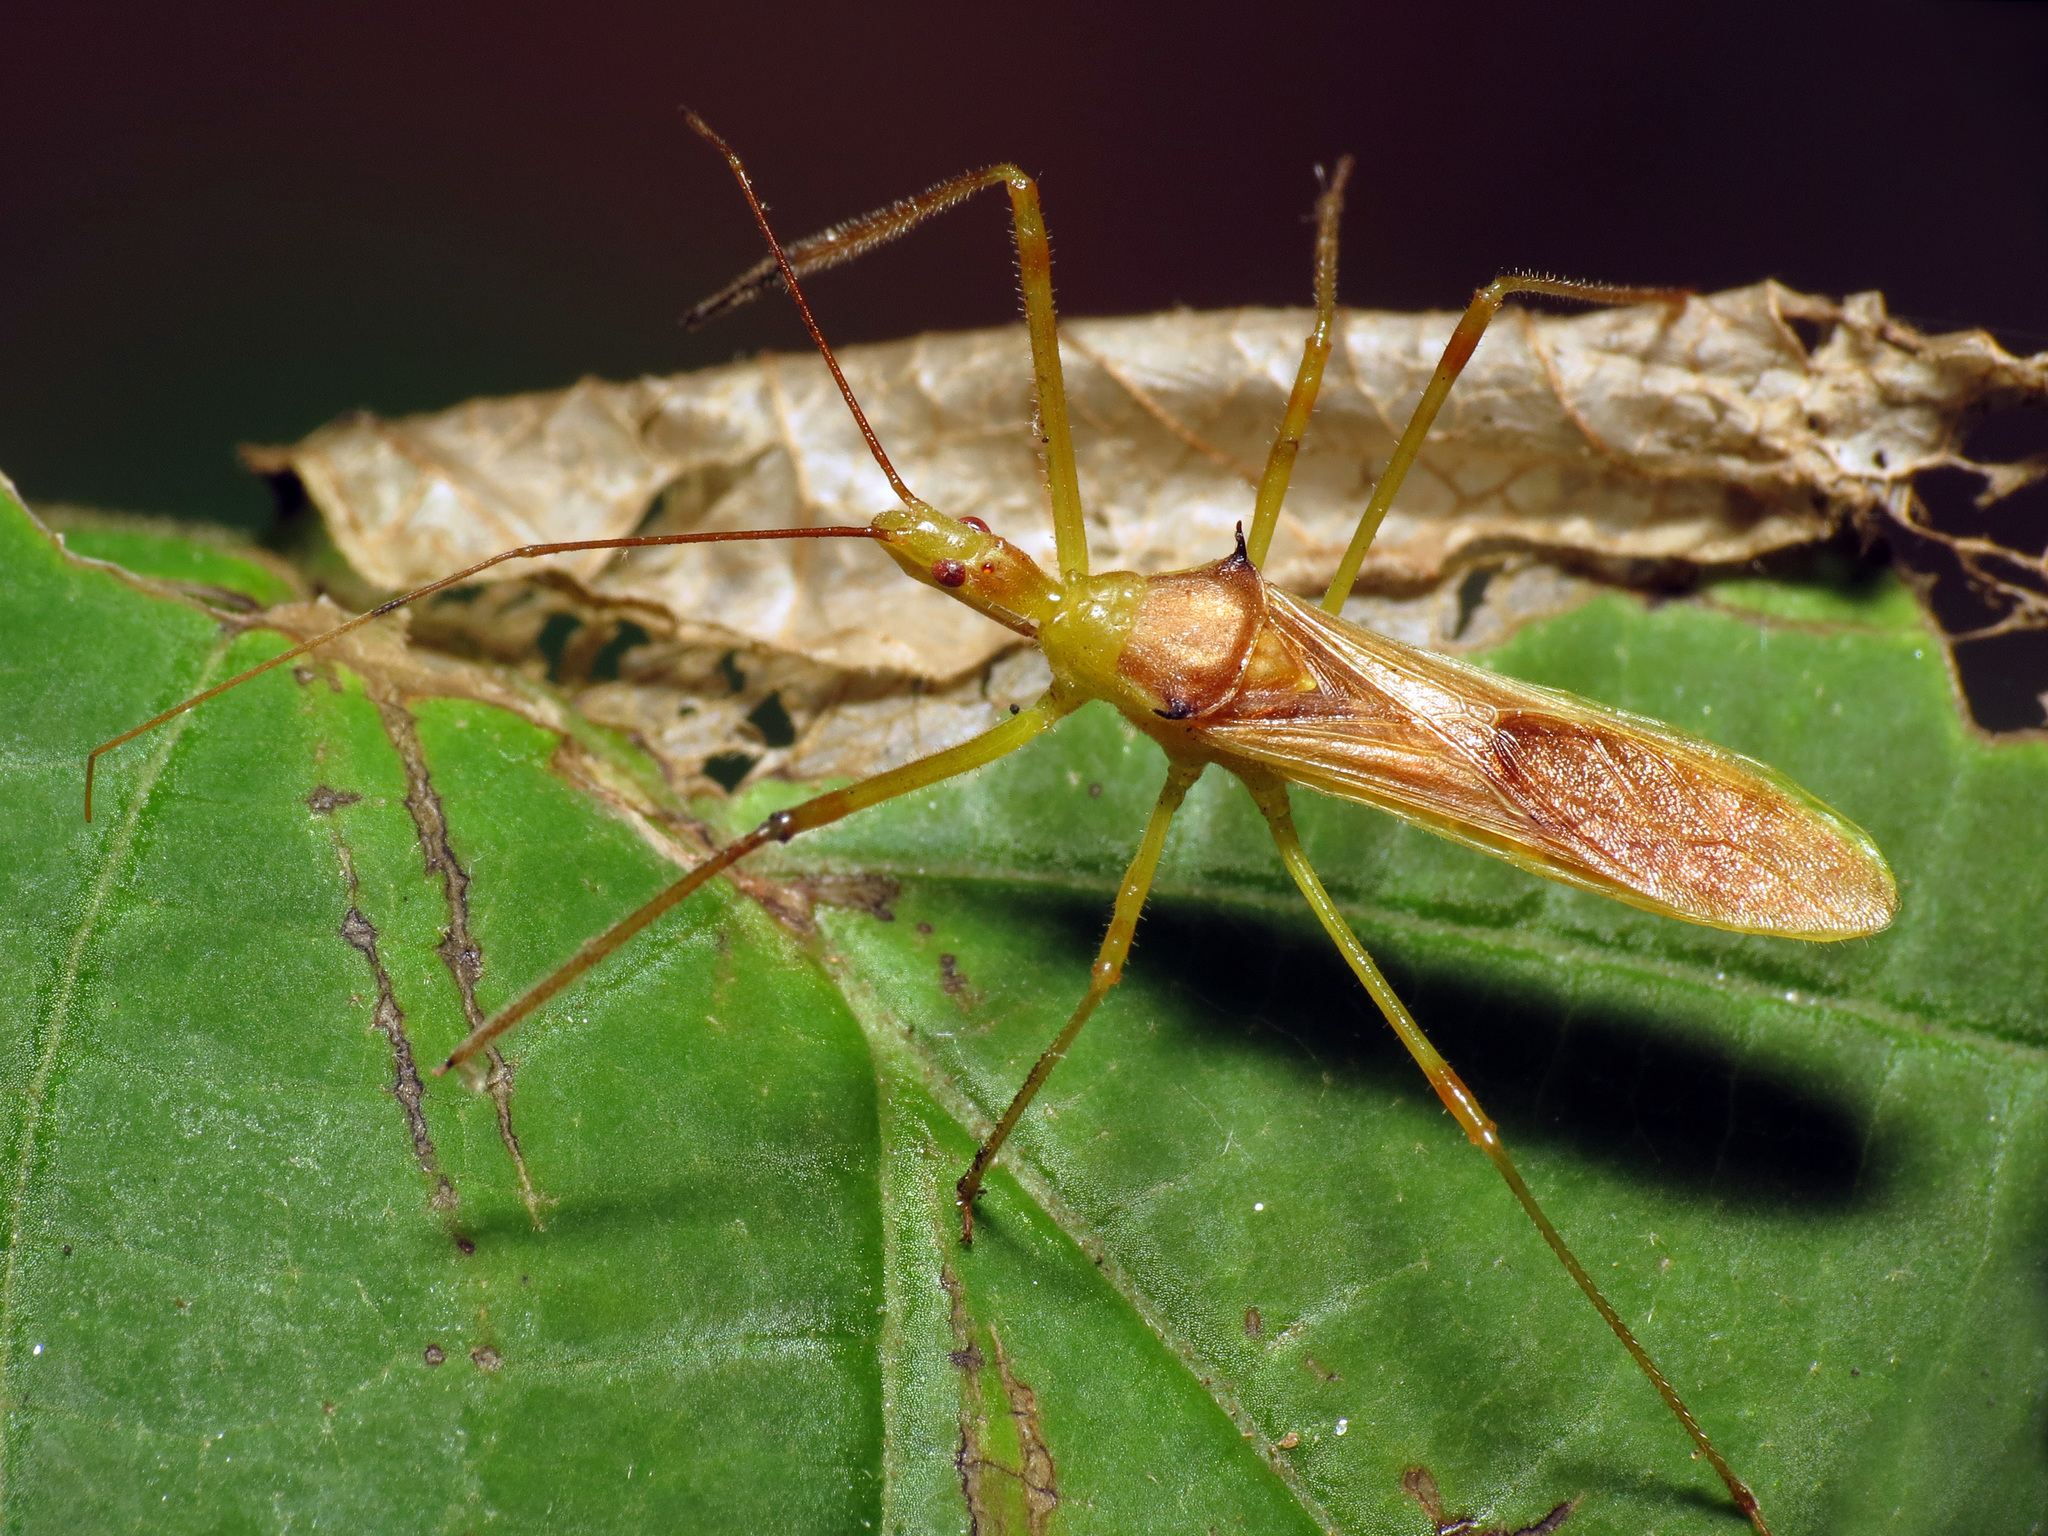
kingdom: Animalia
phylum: Arthropoda
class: Insecta
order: Hemiptera
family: Reduviidae
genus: Zelus
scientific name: Zelus luridus
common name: Pale green assassin bug
